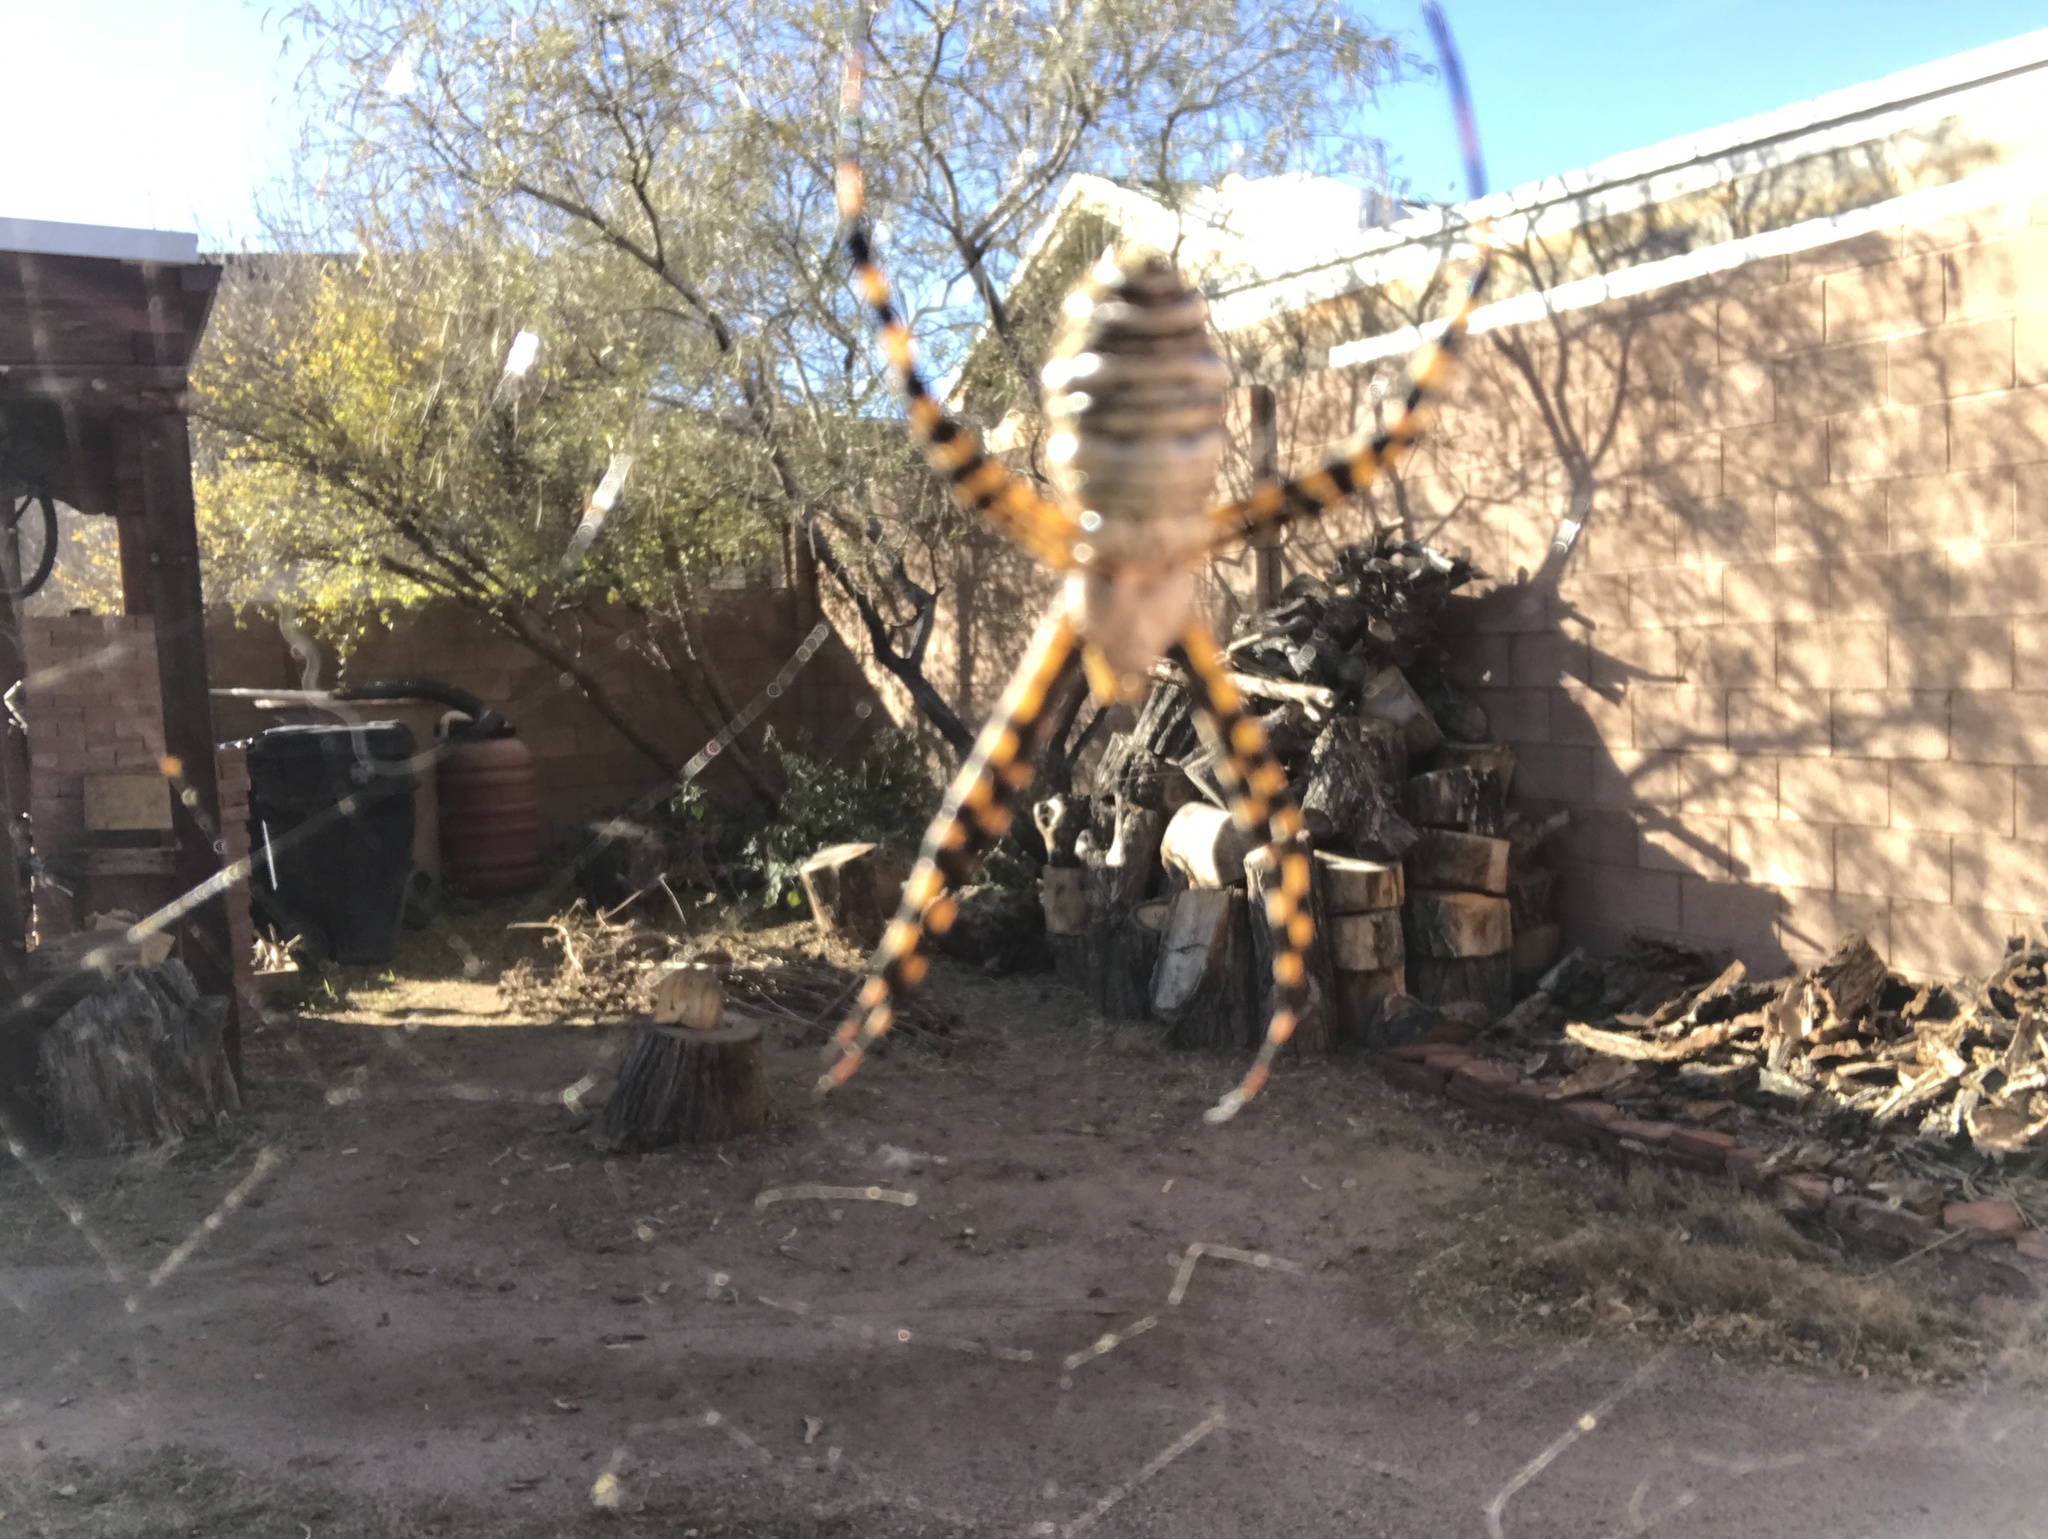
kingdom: Animalia
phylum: Arthropoda
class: Arachnida
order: Araneae
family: Araneidae
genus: Argiope
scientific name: Argiope trifasciata
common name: Banded garden spider
